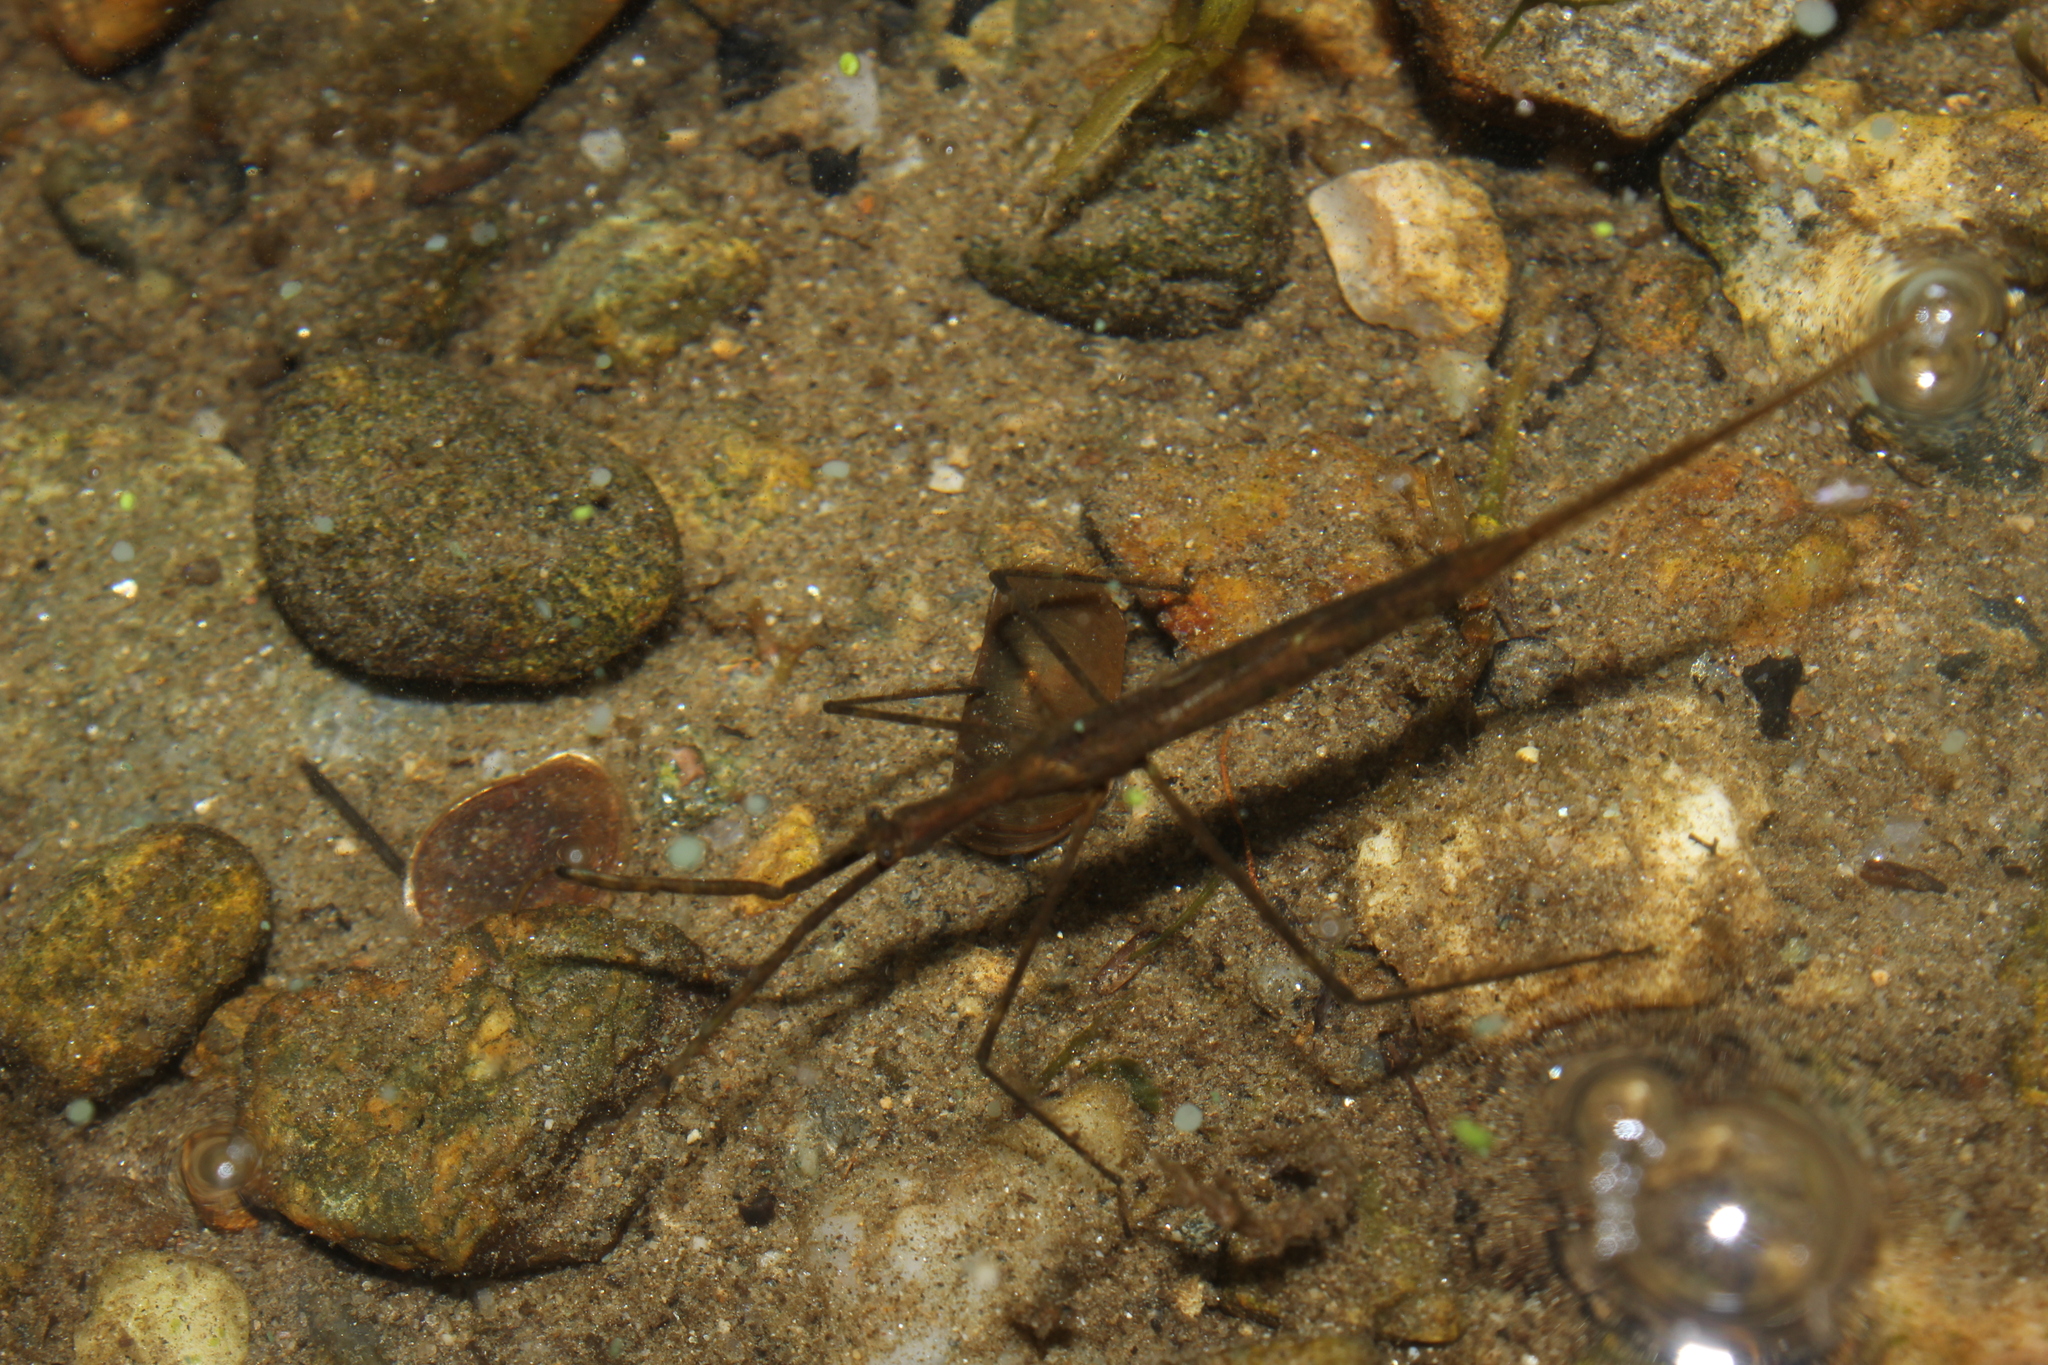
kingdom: Animalia
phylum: Arthropoda
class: Insecta
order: Hemiptera
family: Nepidae
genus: Ranatra
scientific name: Ranatra
